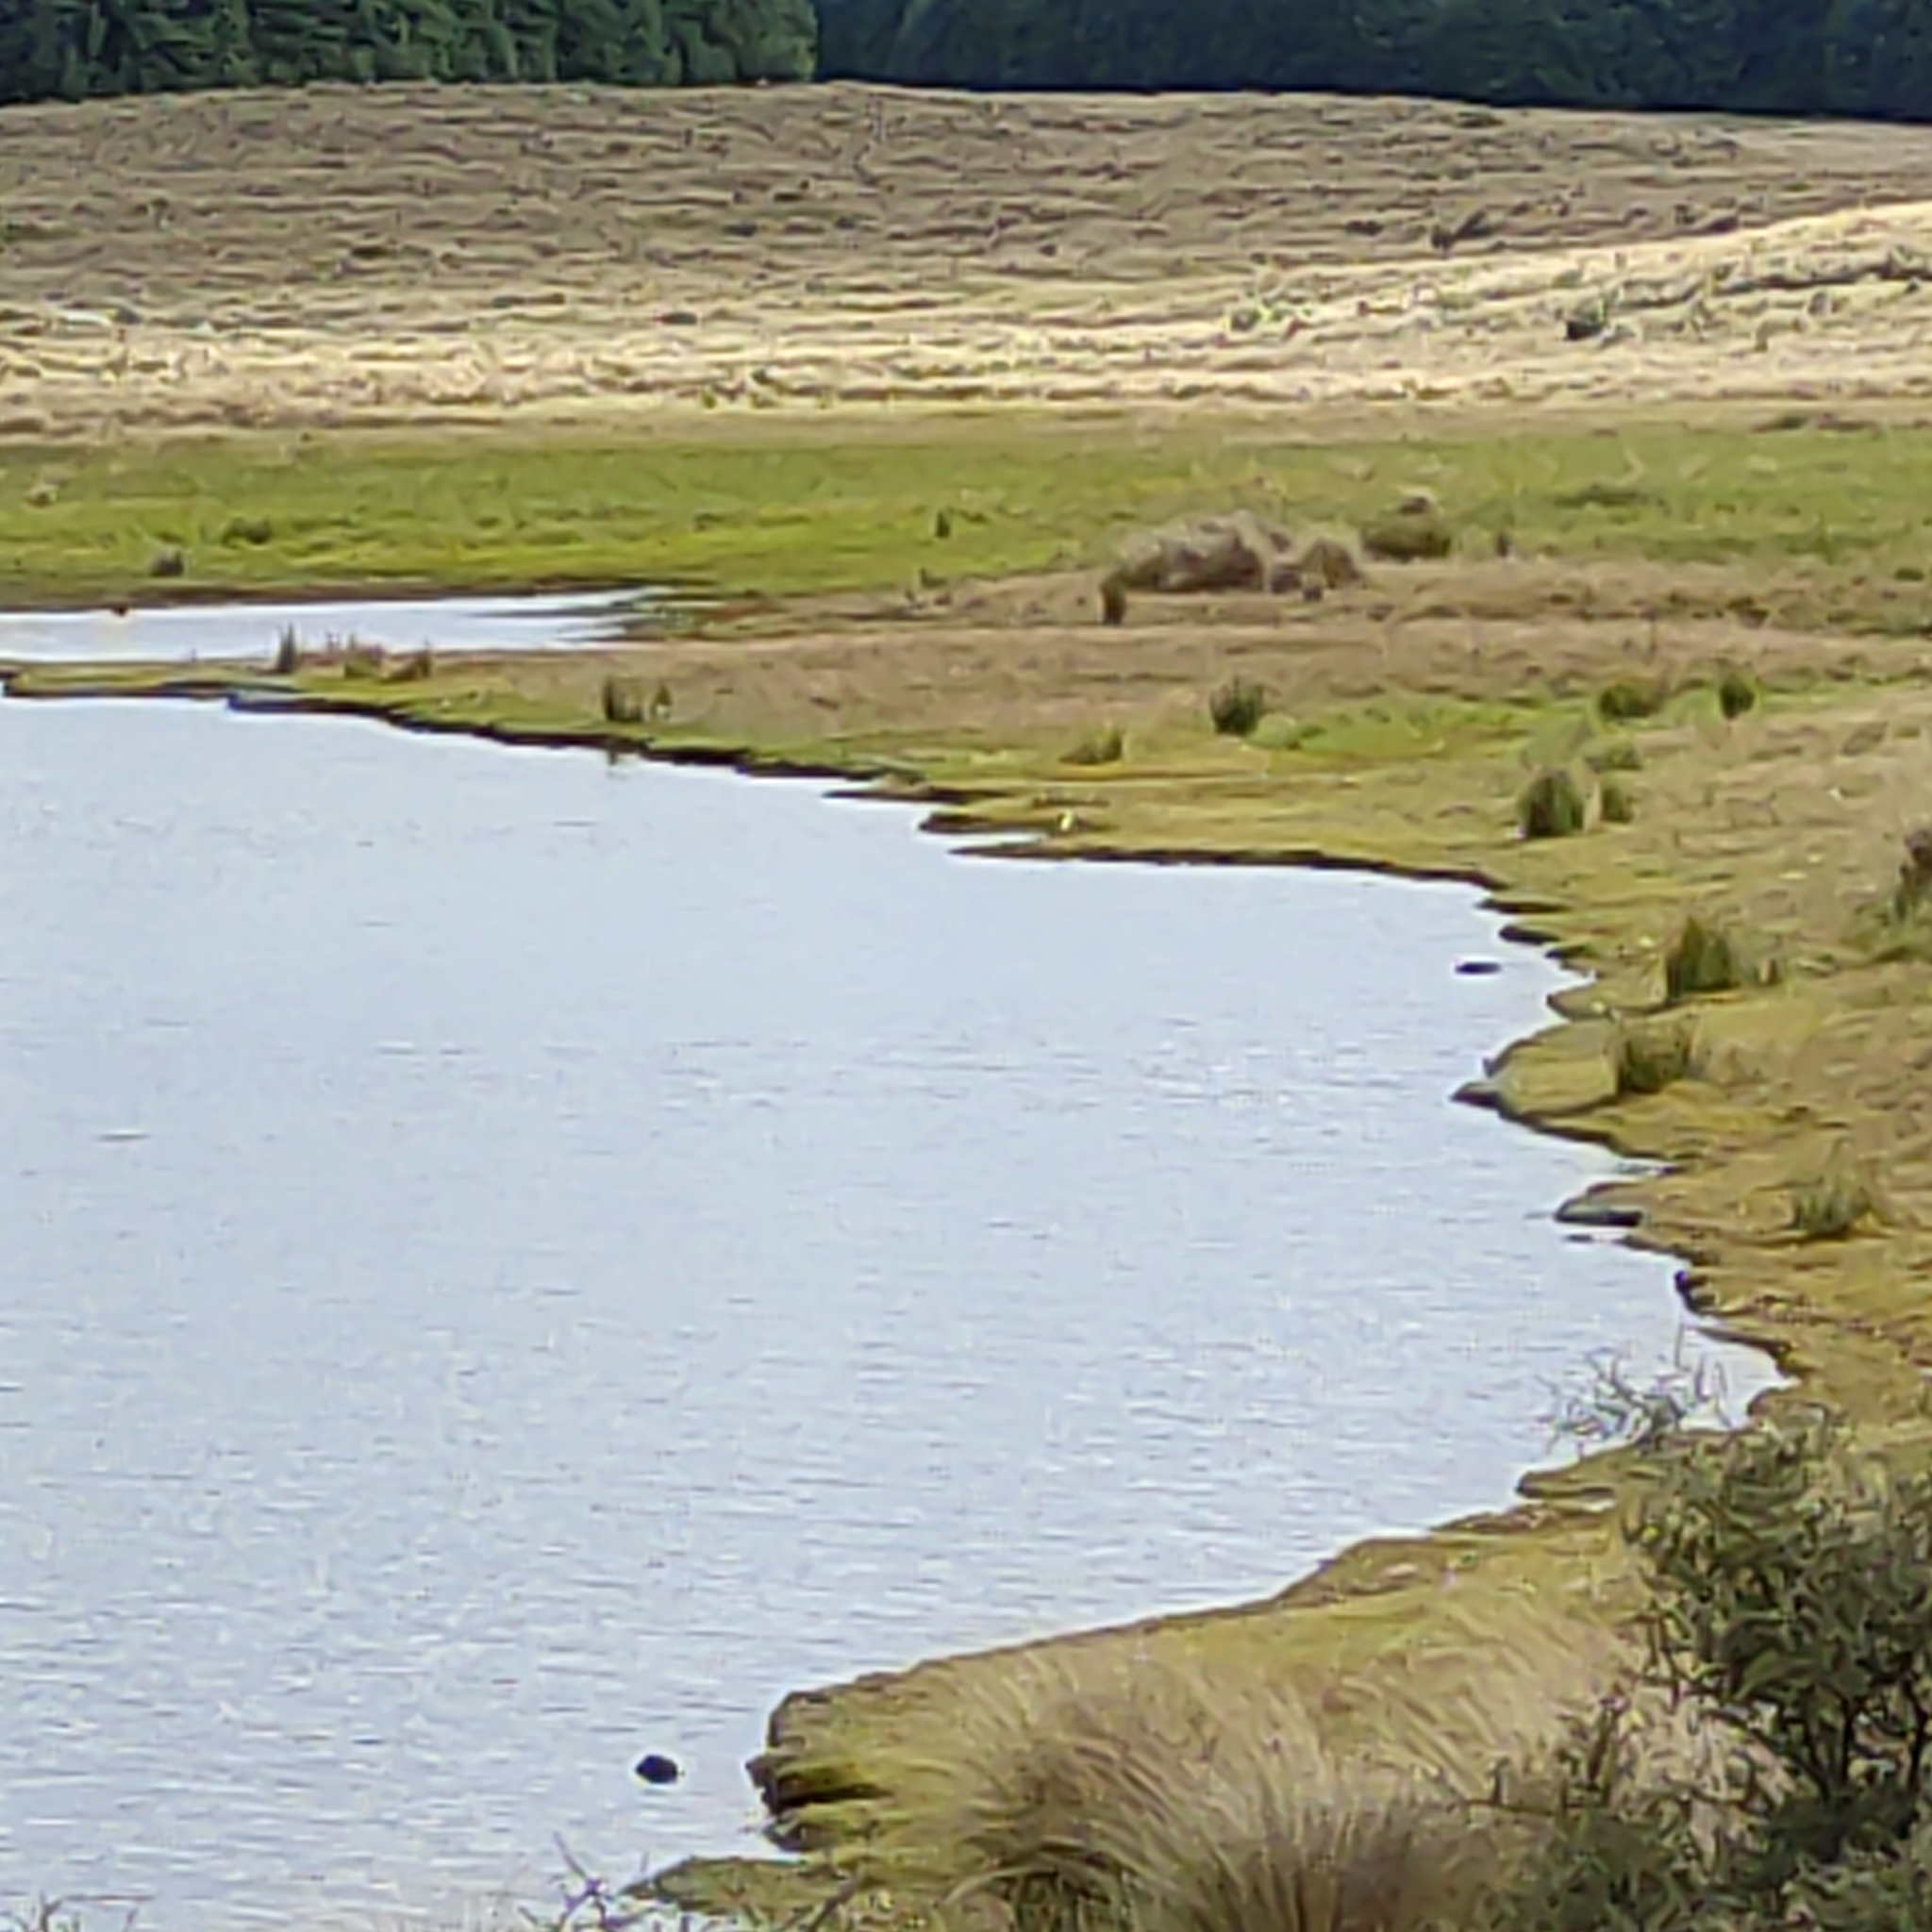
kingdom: Animalia
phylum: Chordata
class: Aves
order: Charadriiformes
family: Recurvirostridae
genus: Himantopus
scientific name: Himantopus leucocephalus
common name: White-headed stilt
